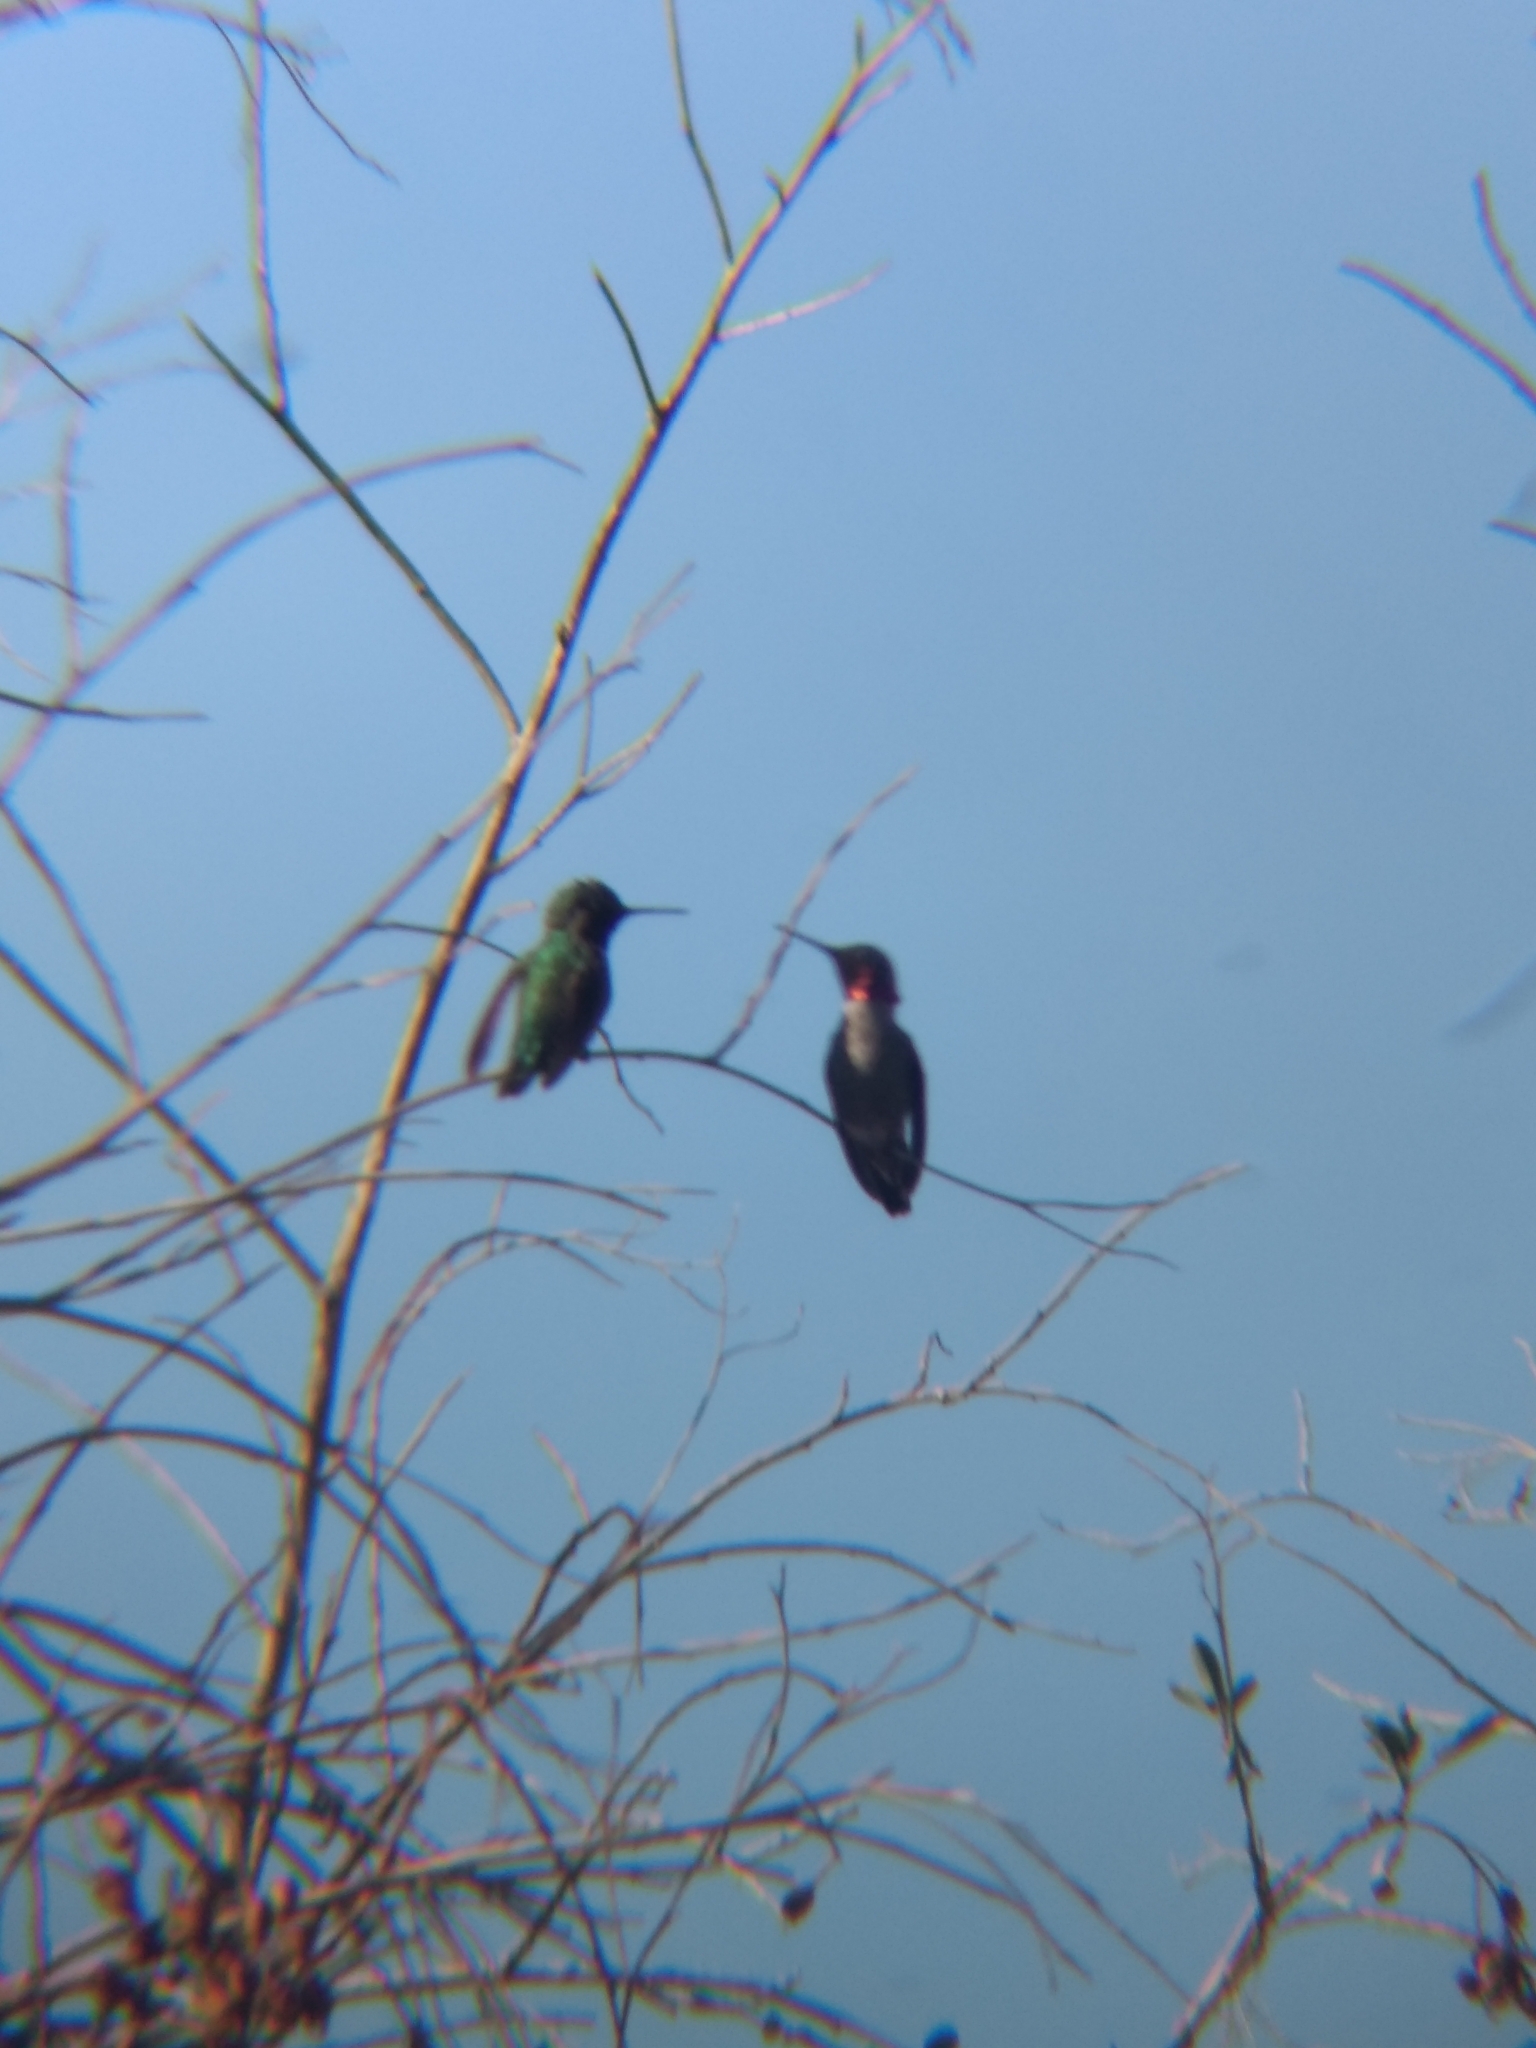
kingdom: Animalia
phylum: Chordata
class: Aves
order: Apodiformes
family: Trochilidae
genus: Calypte
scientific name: Calypte anna
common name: Anna's hummingbird
